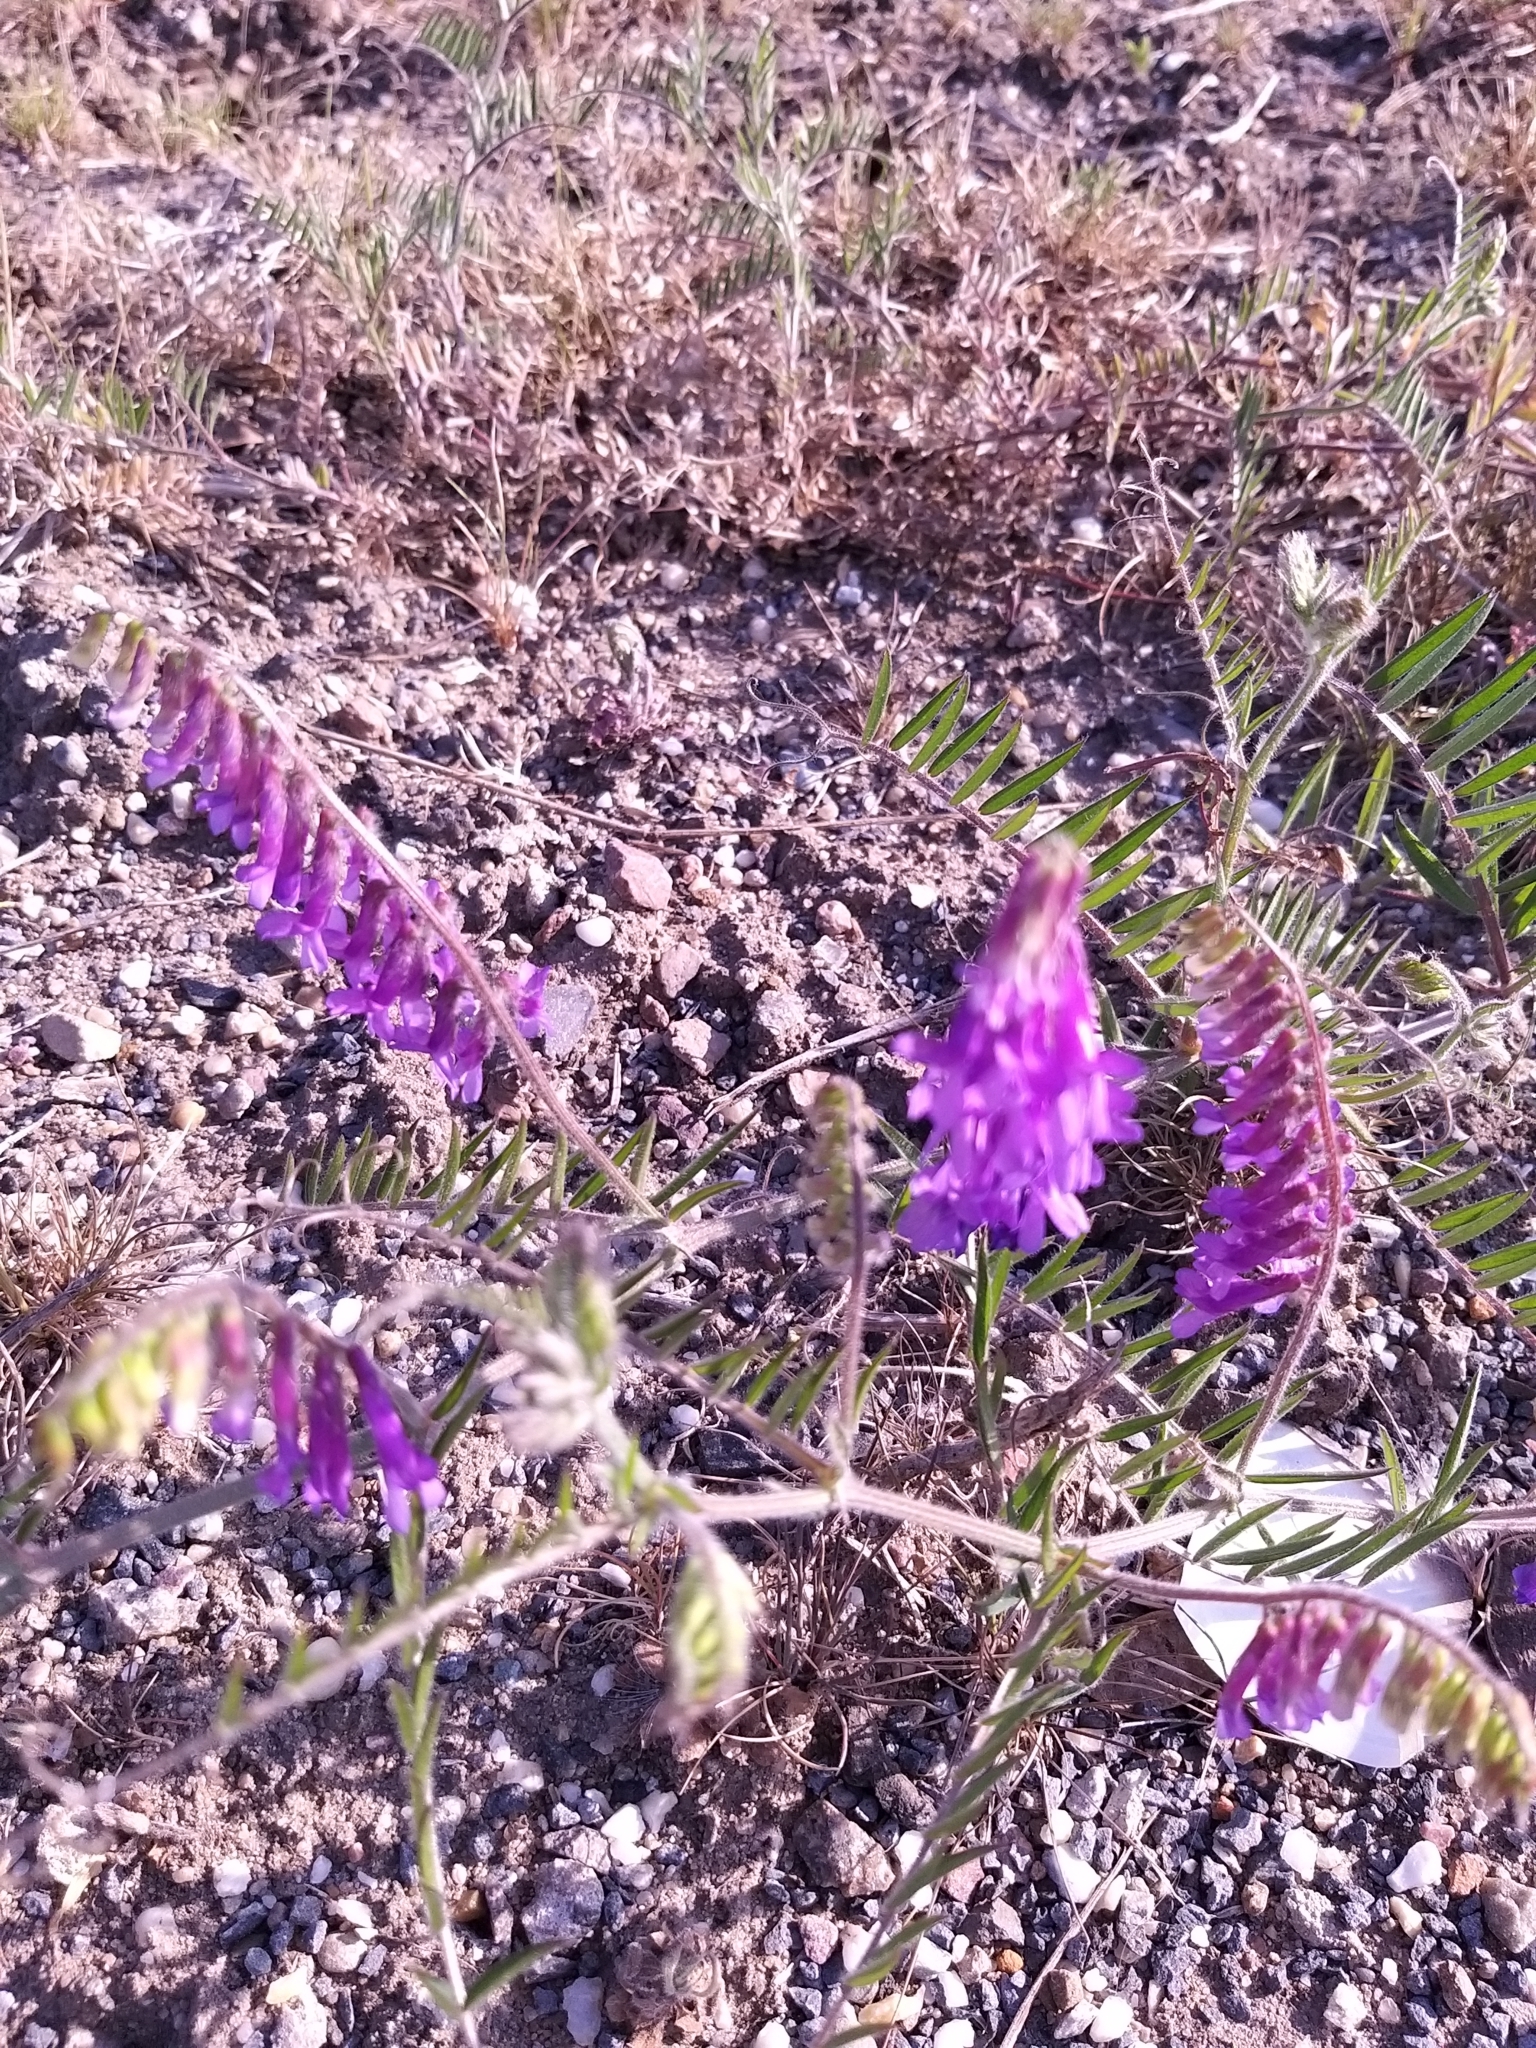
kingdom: Plantae
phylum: Tracheophyta
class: Magnoliopsida
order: Fabales
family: Fabaceae
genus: Vicia
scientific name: Vicia villosa
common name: Fodder vetch
